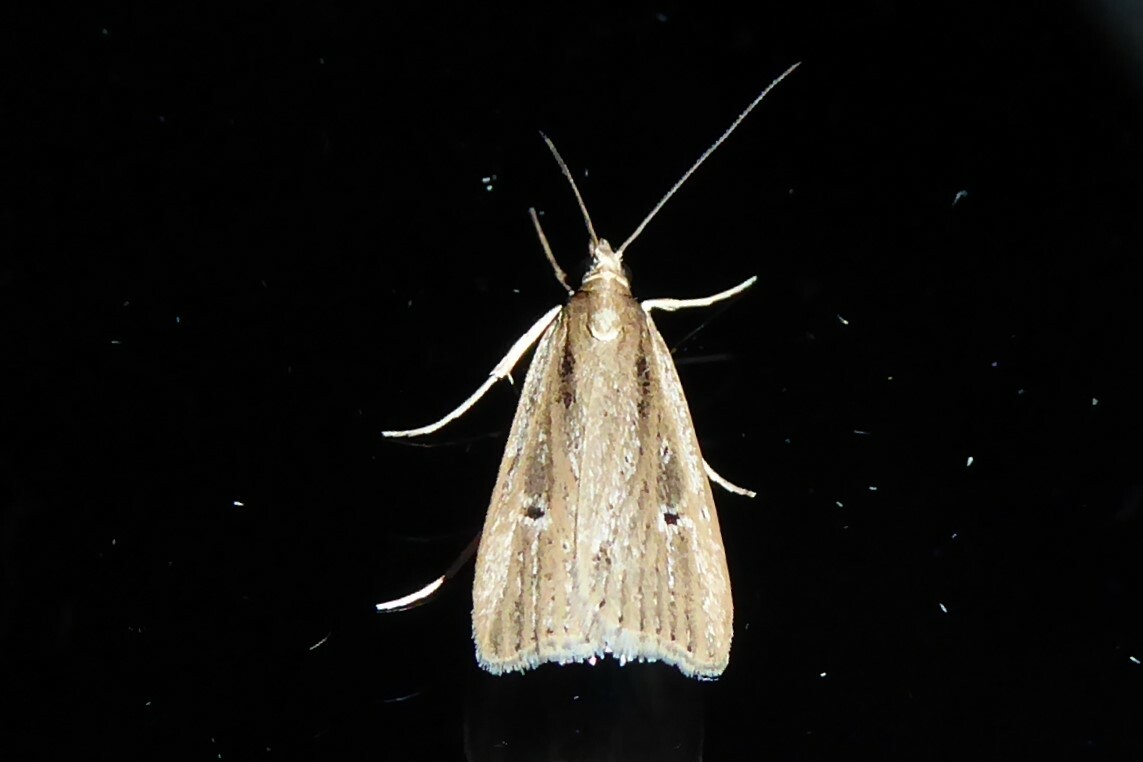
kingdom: Animalia
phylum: Arthropoda
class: Insecta
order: Lepidoptera
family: Crambidae
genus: Eudonia
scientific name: Eudonia sabulosella
